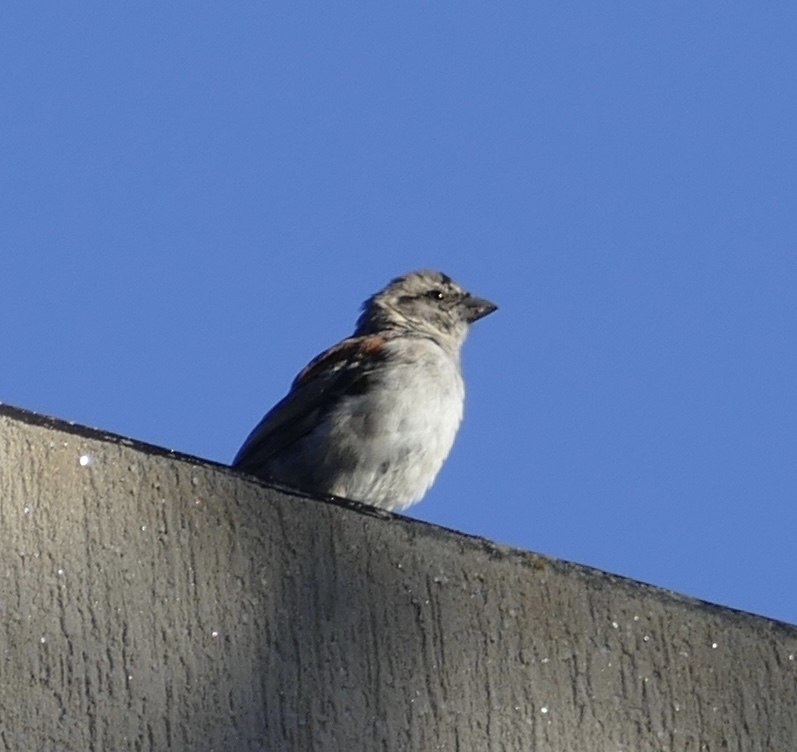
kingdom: Animalia
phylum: Chordata
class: Aves
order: Passeriformes
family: Passeridae
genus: Passer
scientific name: Passer melanurus
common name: Cape sparrow
